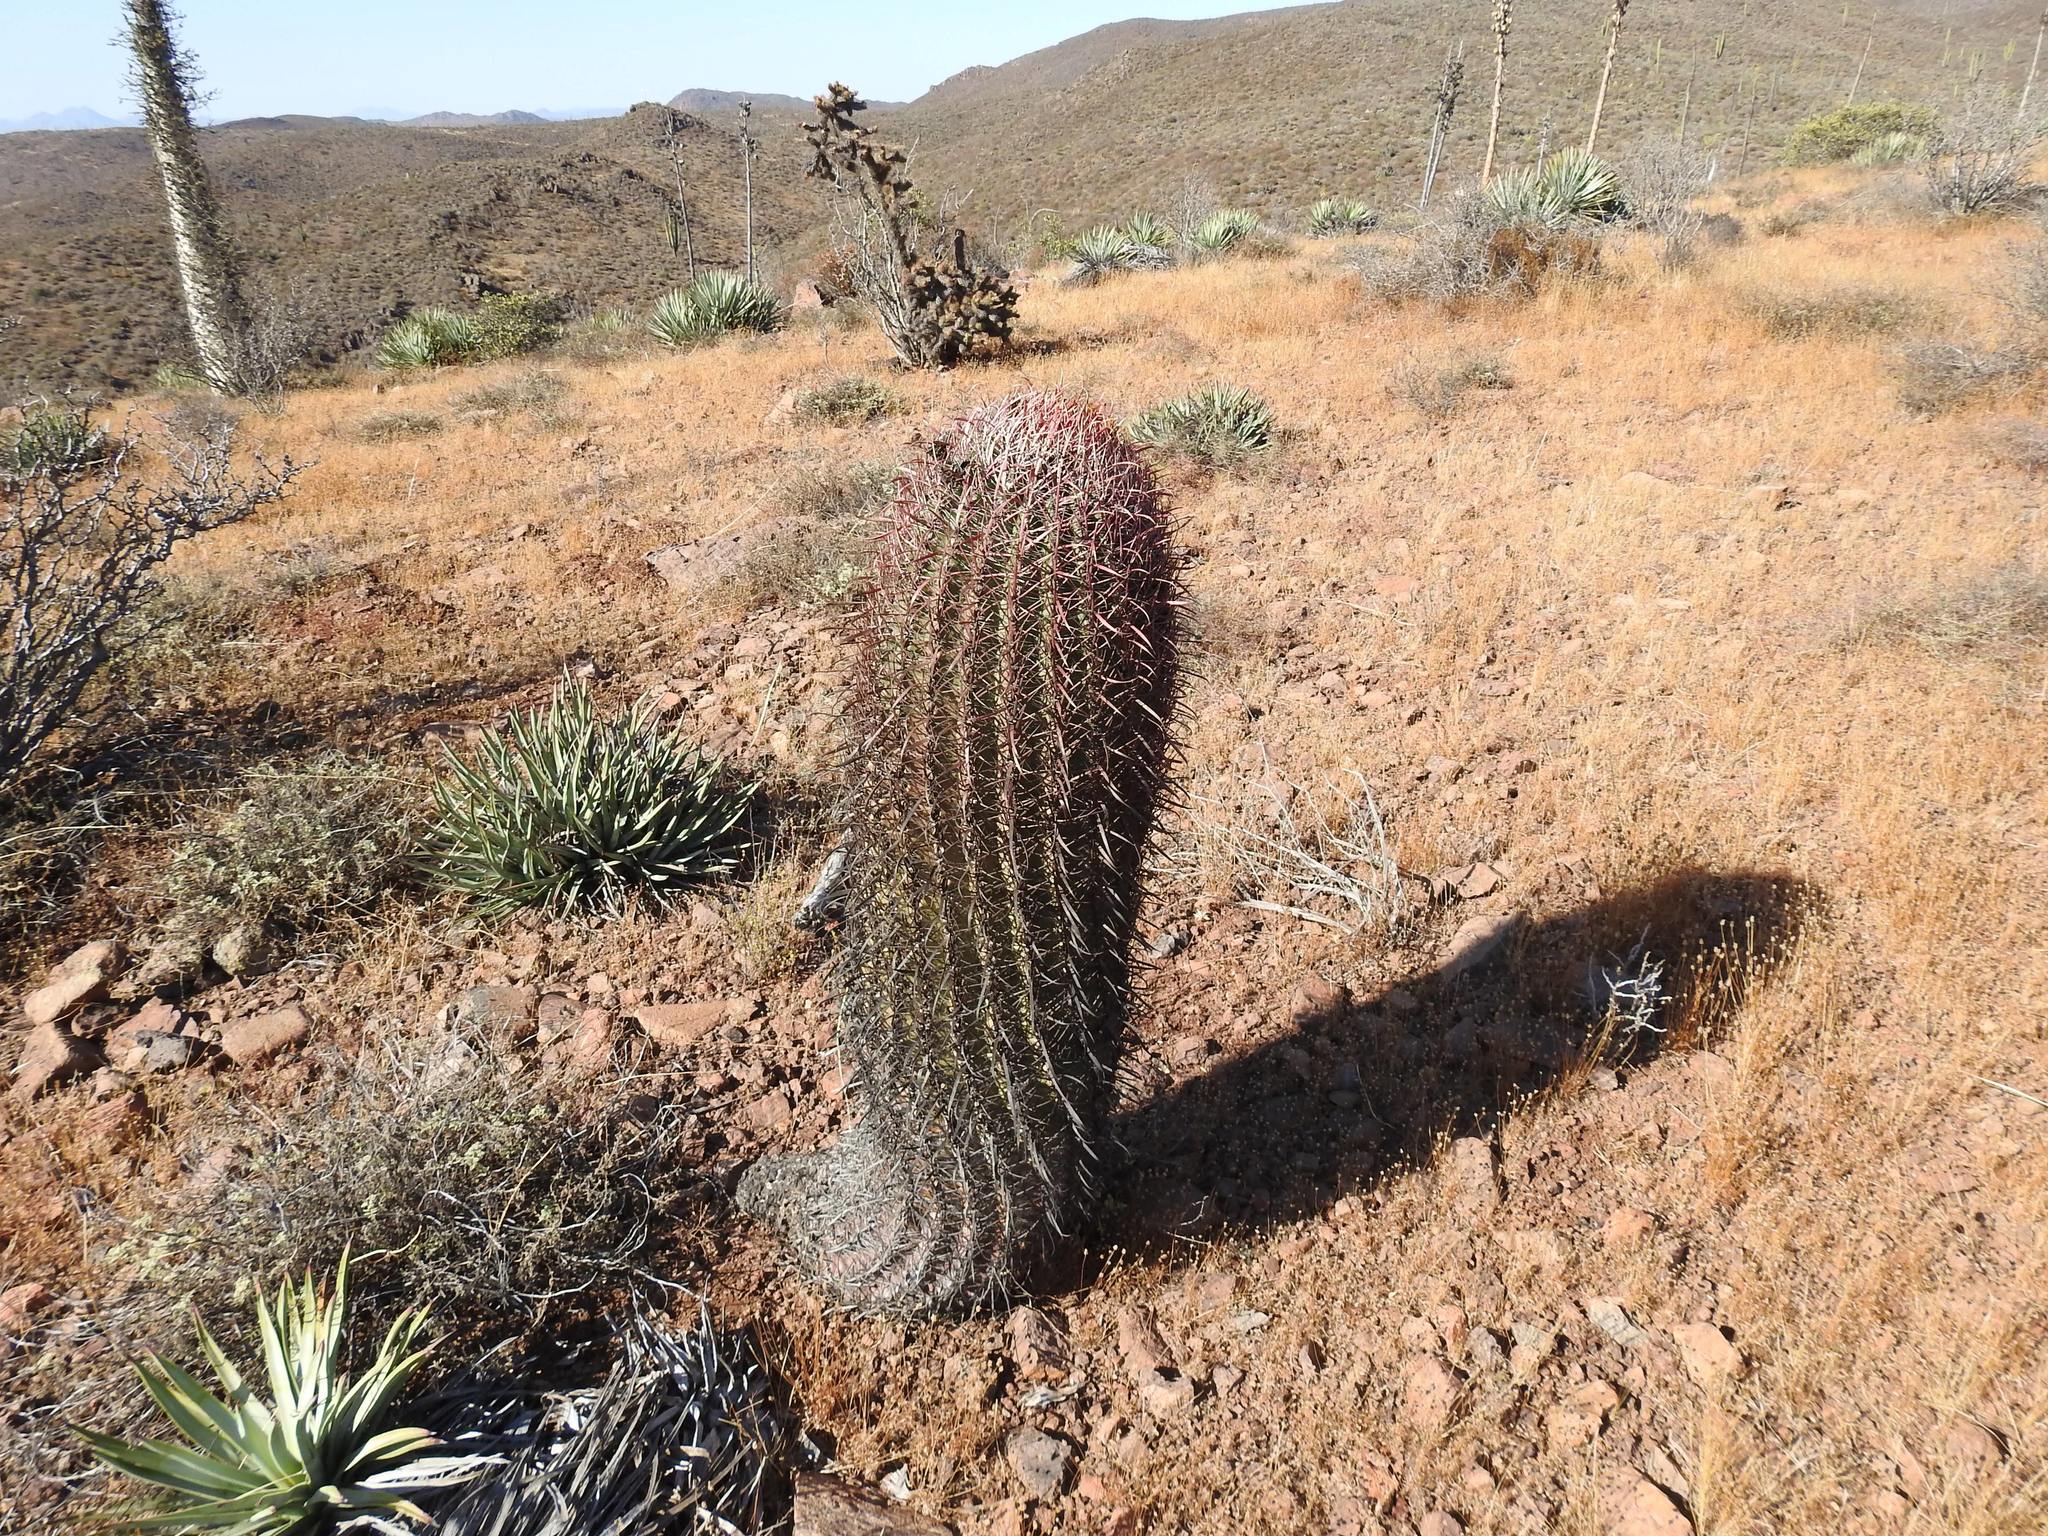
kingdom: Plantae
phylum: Tracheophyta
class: Magnoliopsida
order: Caryophyllales
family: Cactaceae
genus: Ferocactus
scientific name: Ferocactus gracilis
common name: Fire barrel cactus
